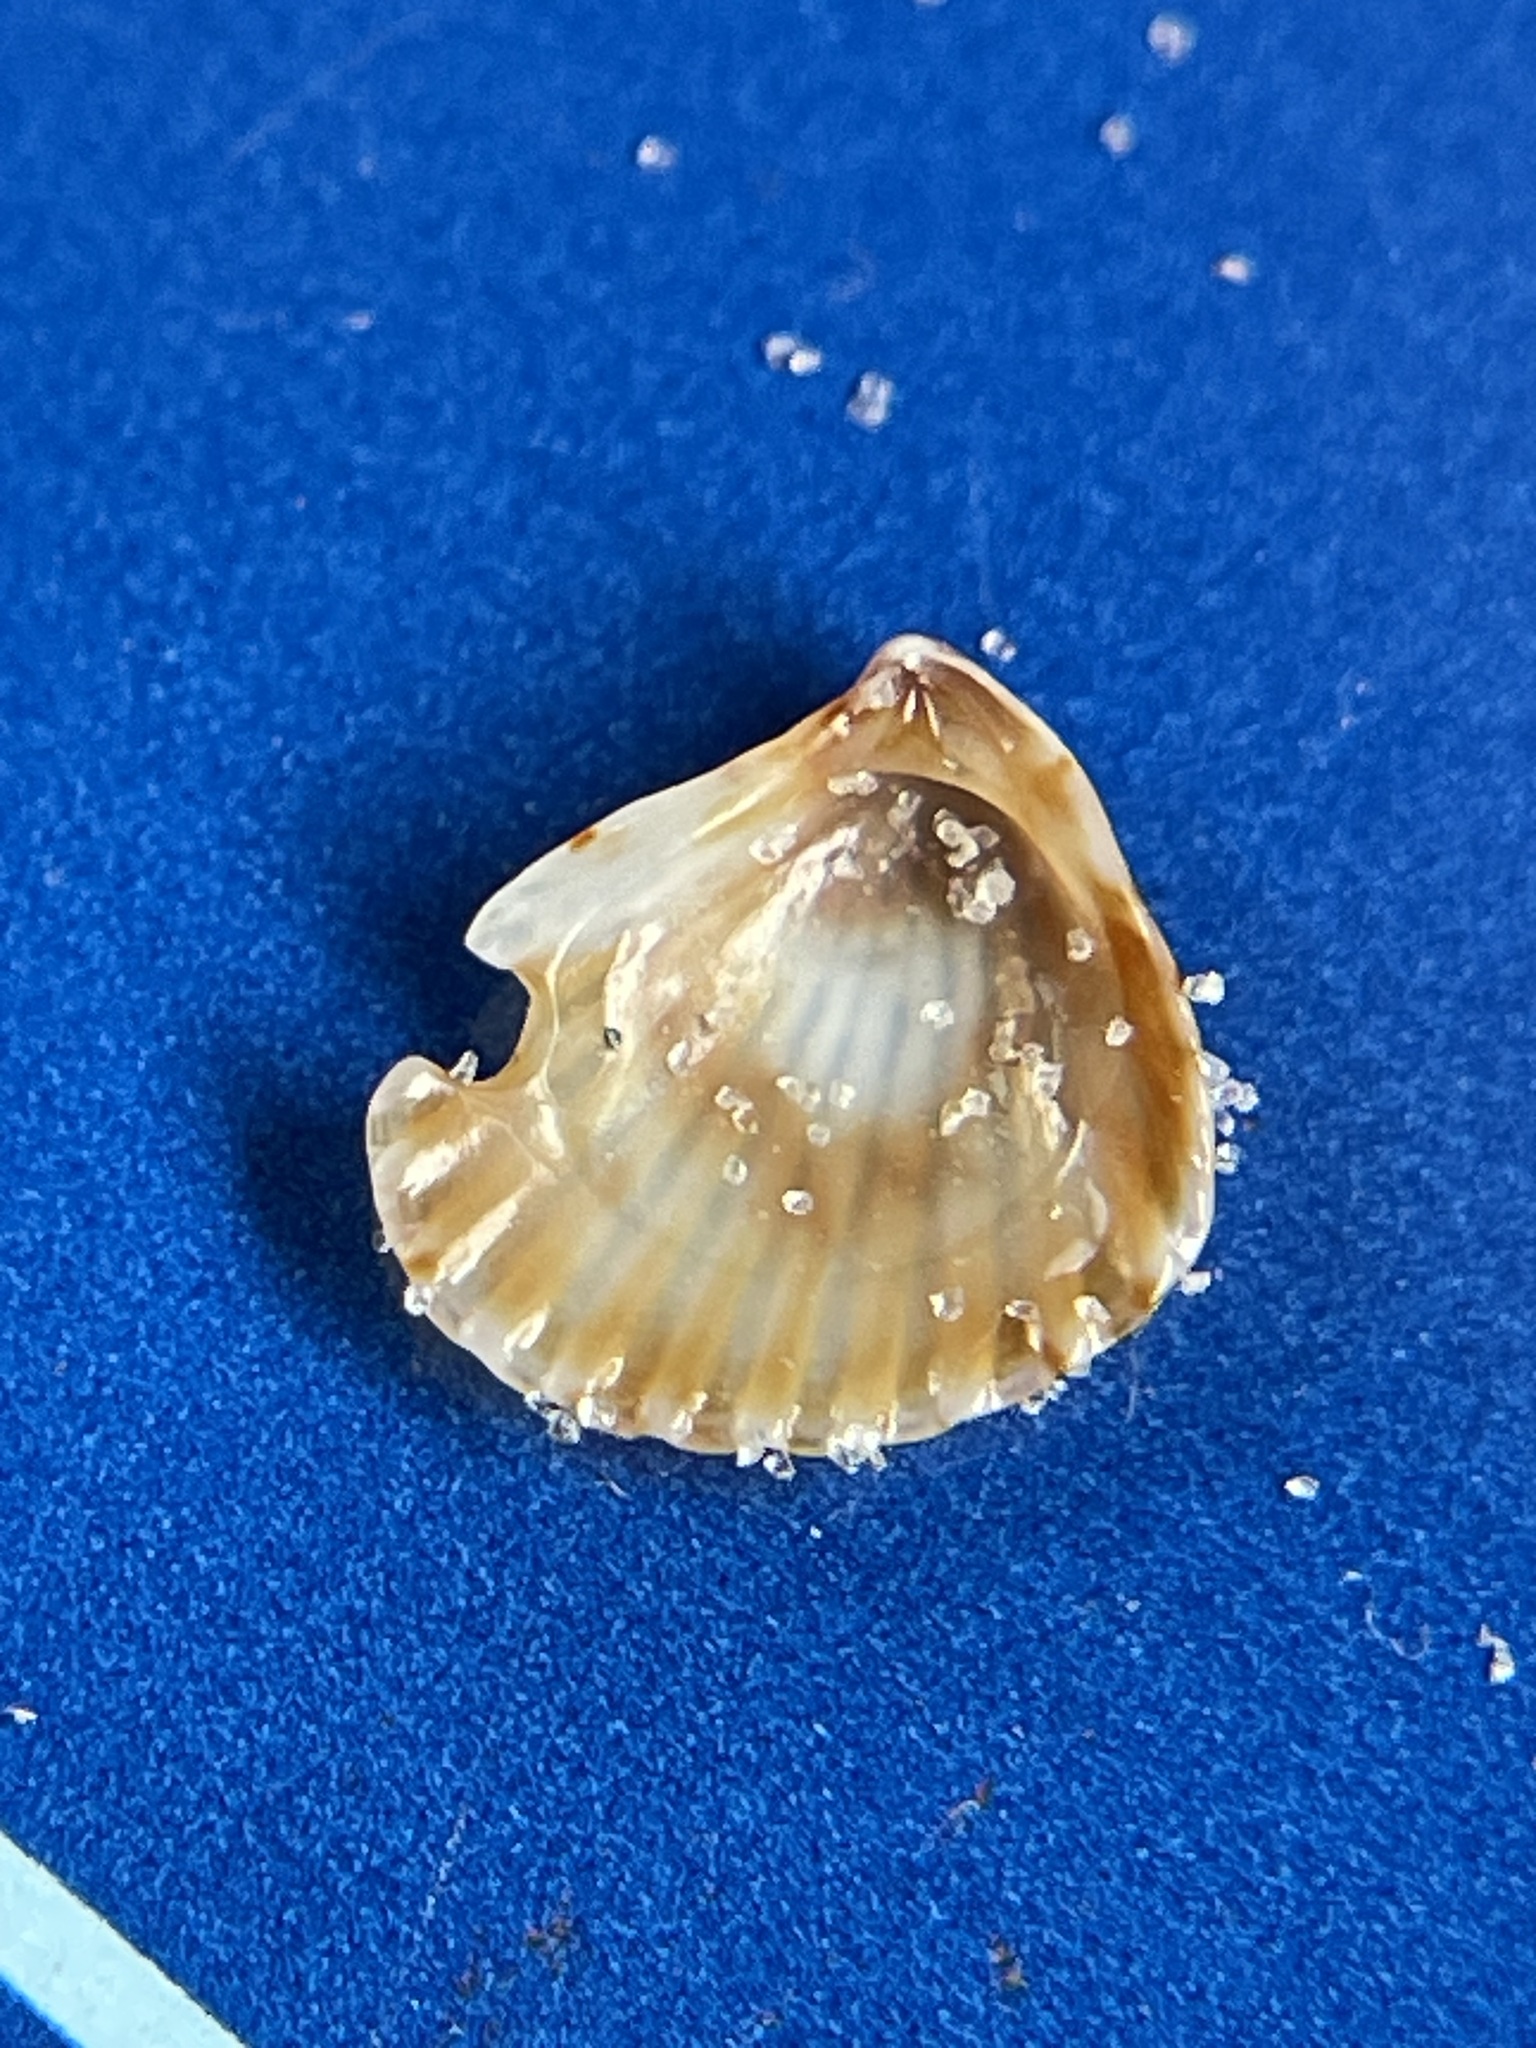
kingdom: Animalia
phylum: Mollusca
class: Bivalvia
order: Carditida
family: Carditidae
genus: Pteromeris
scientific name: Pteromeris perplana
